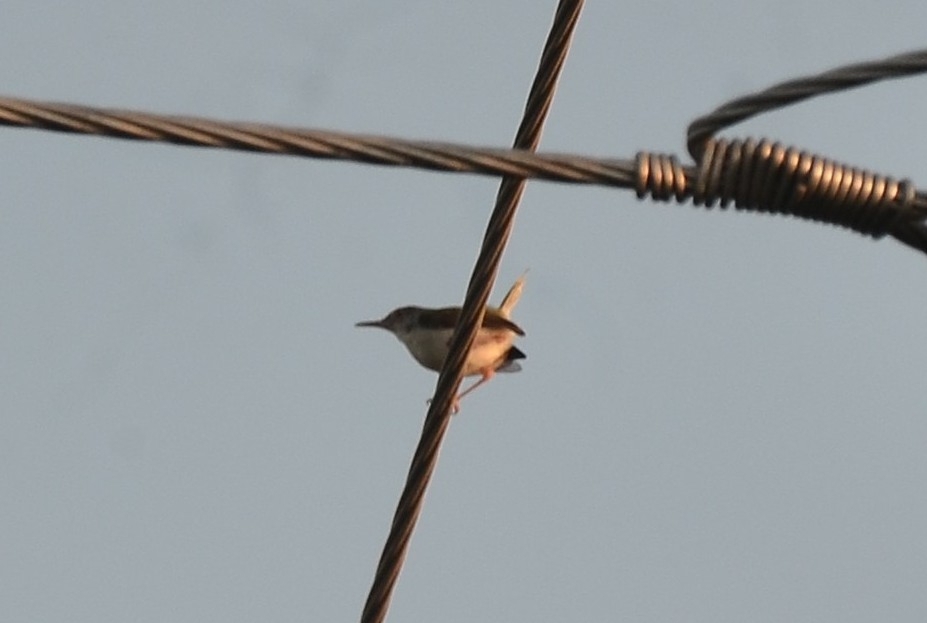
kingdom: Animalia
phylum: Chordata
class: Aves
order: Passeriformes
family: Cisticolidae
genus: Orthotomus
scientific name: Orthotomus sutorius
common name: Common tailorbird
